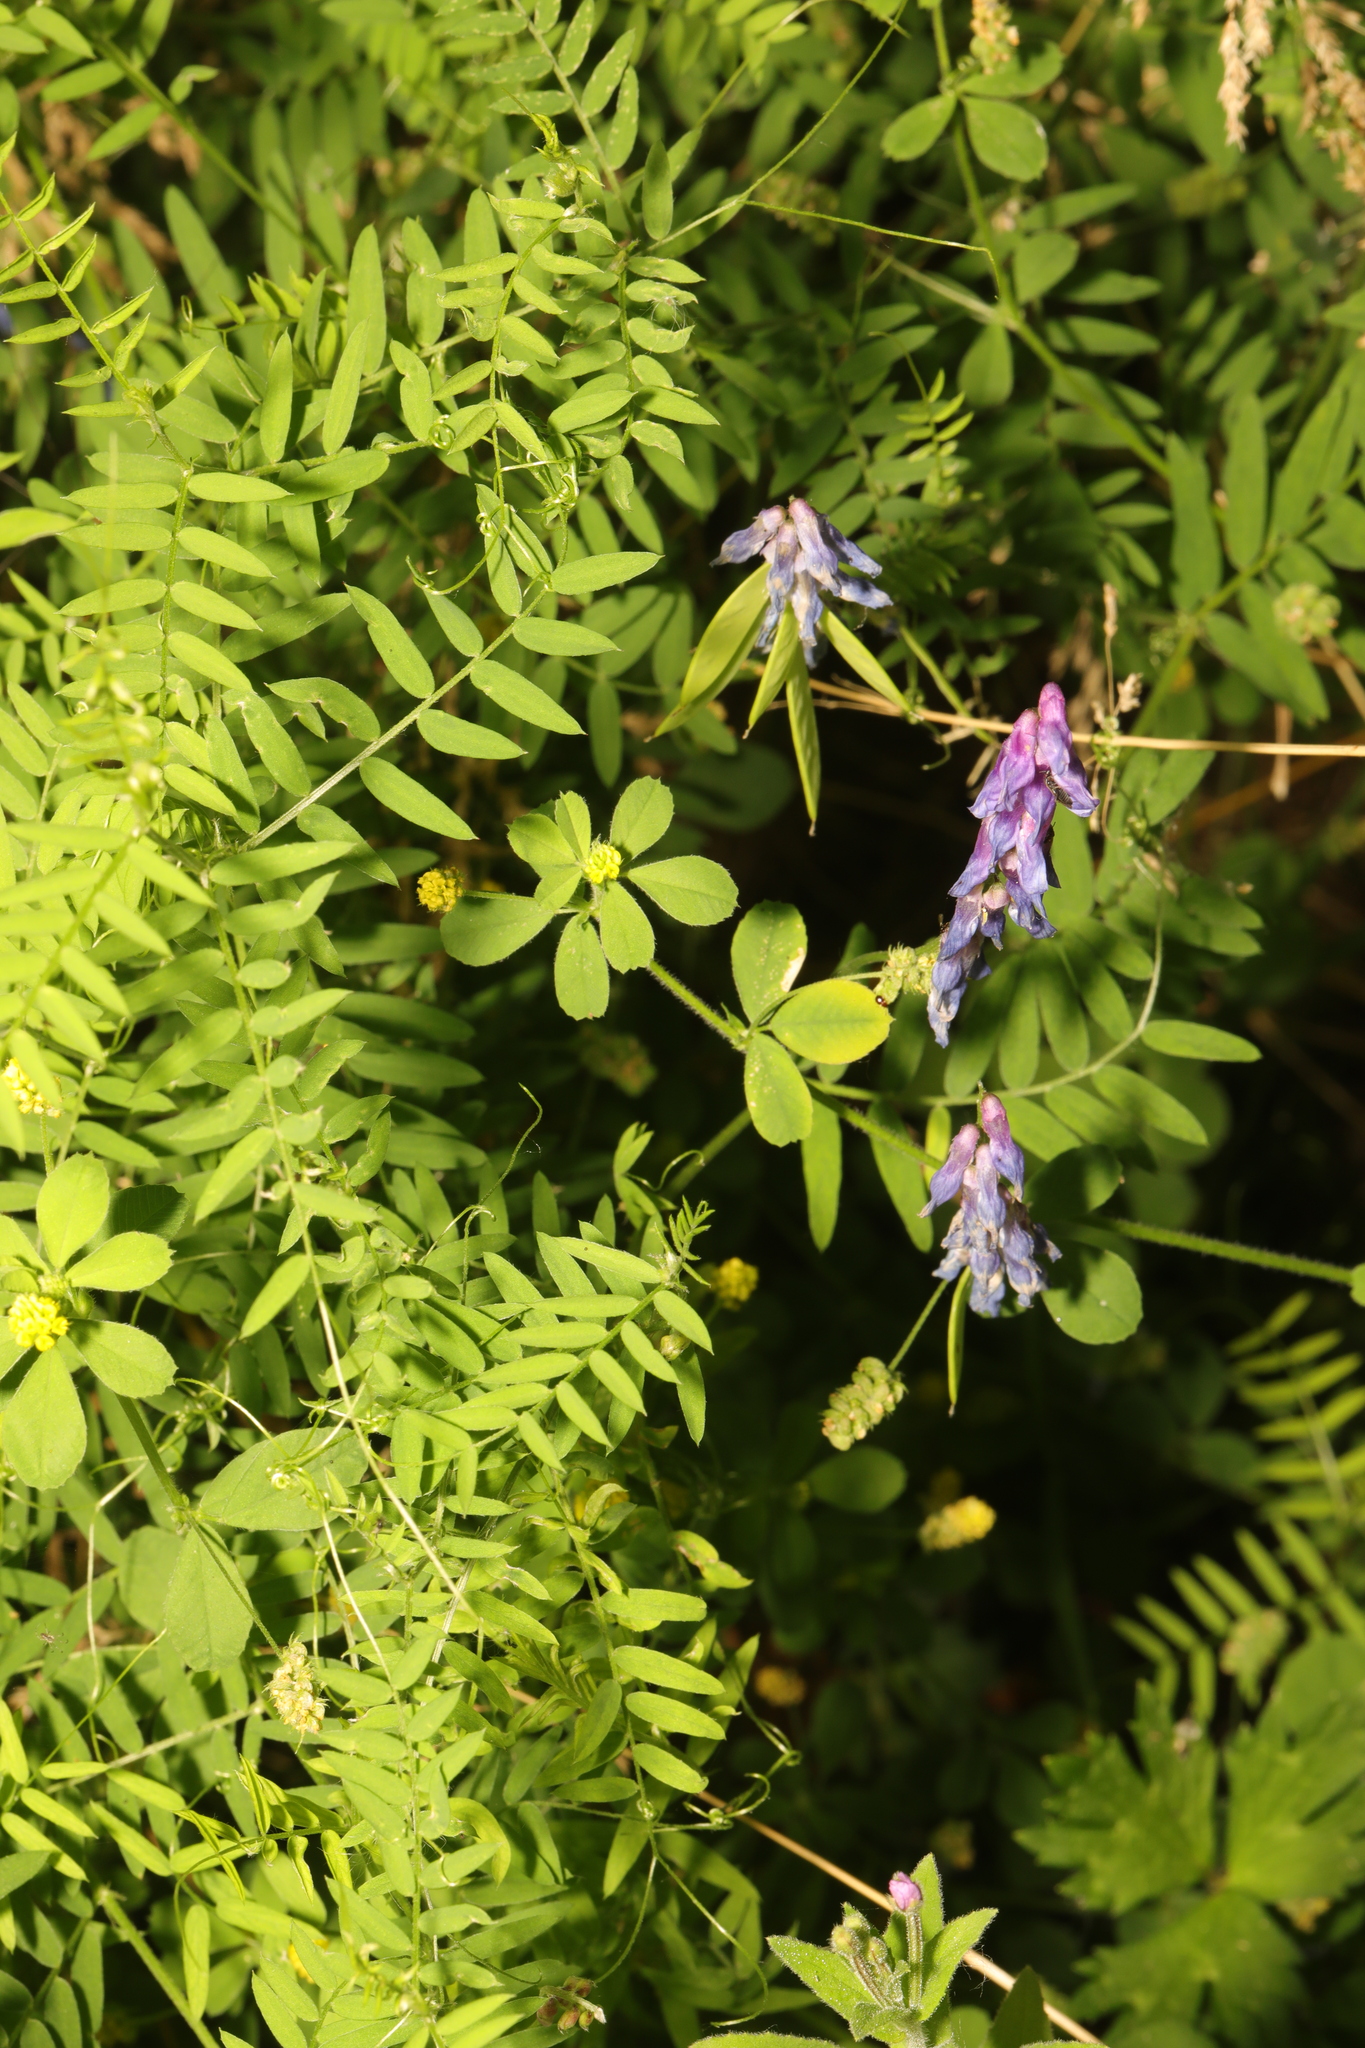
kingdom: Plantae
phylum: Tracheophyta
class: Magnoliopsida
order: Fabales
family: Fabaceae
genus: Vicia
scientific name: Vicia cracca
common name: Bird vetch
